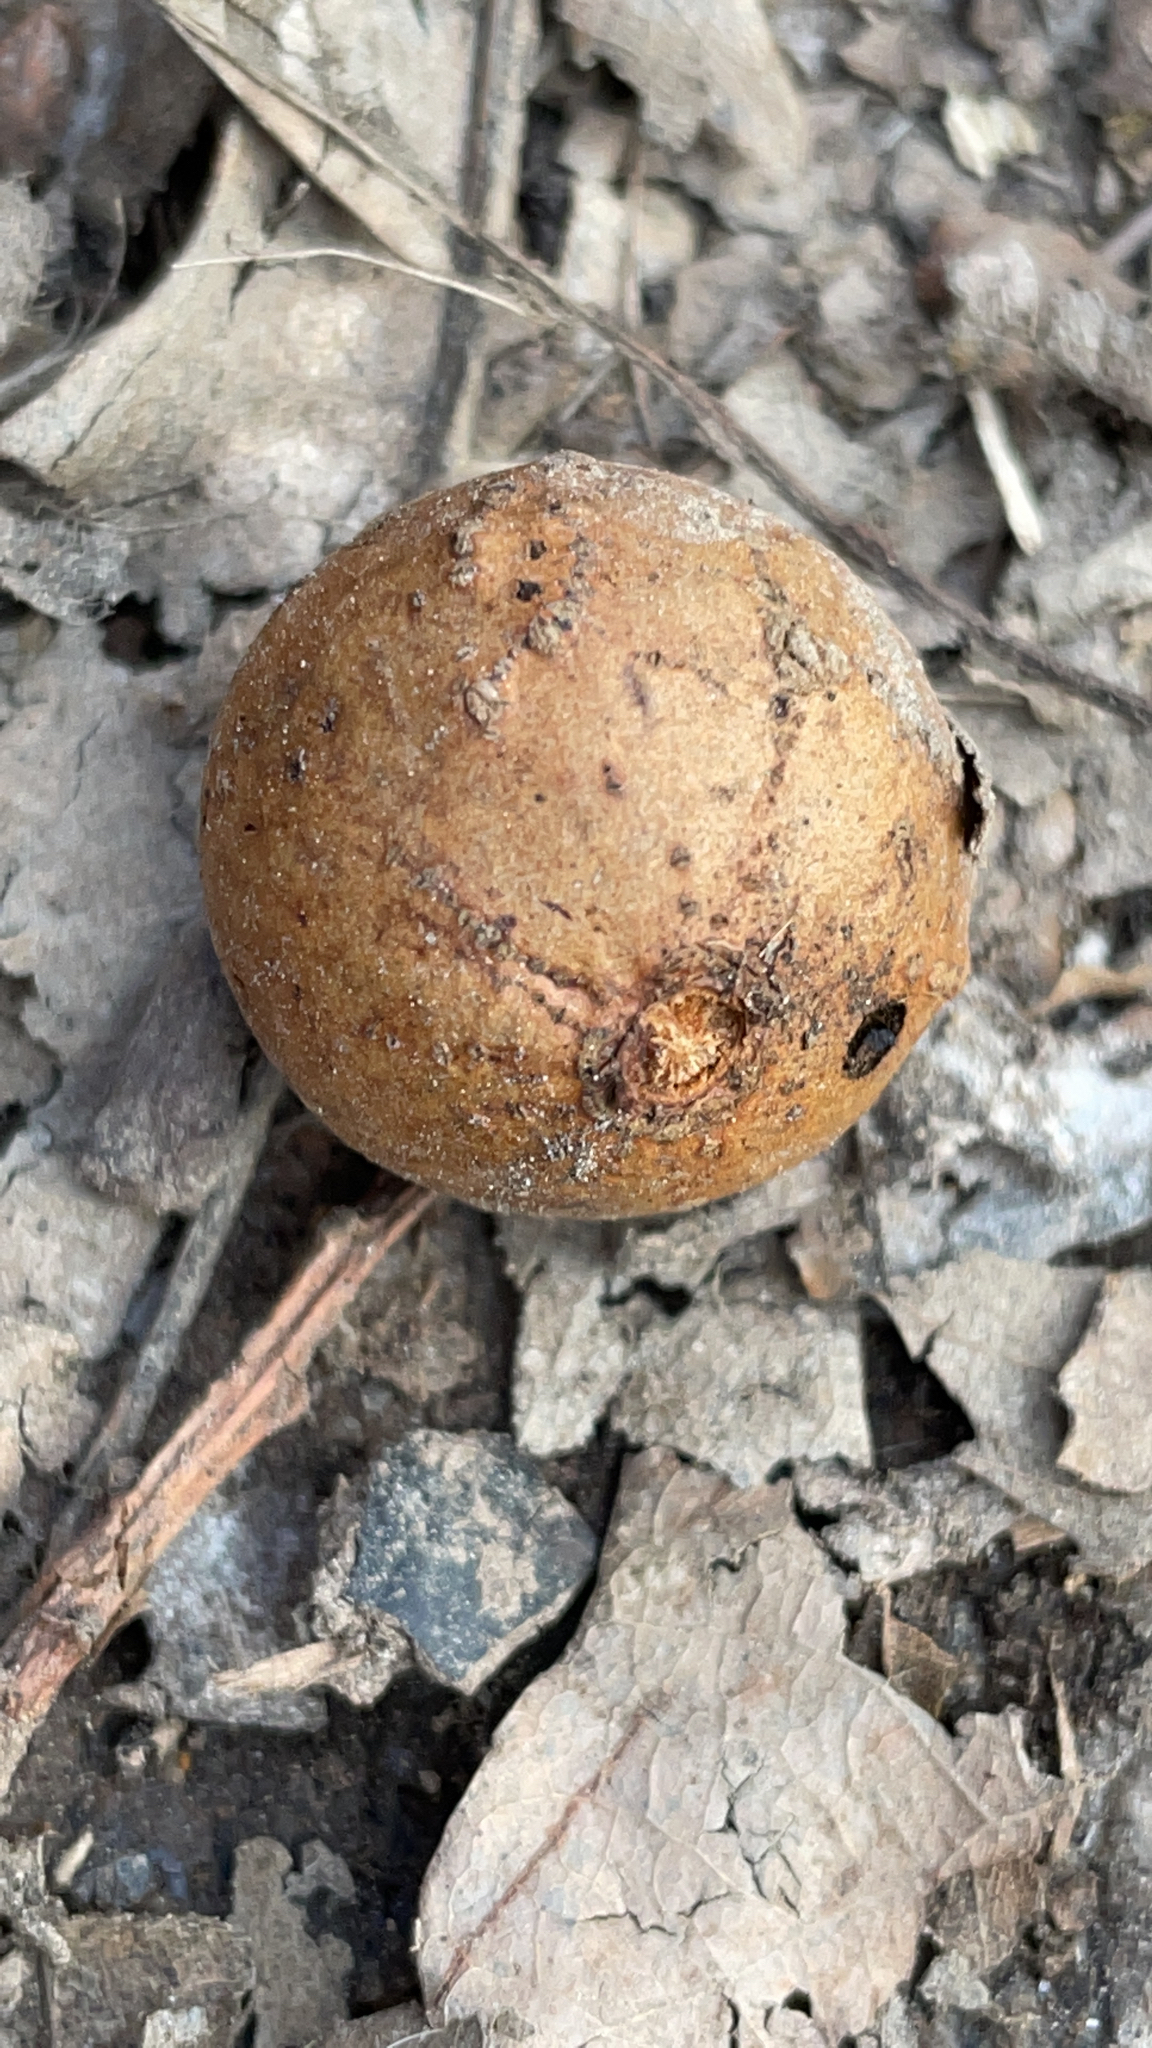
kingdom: Animalia
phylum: Arthropoda
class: Insecta
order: Hymenoptera
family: Cynipidae
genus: Andricus
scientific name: Andricus kollari
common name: Marble gall
